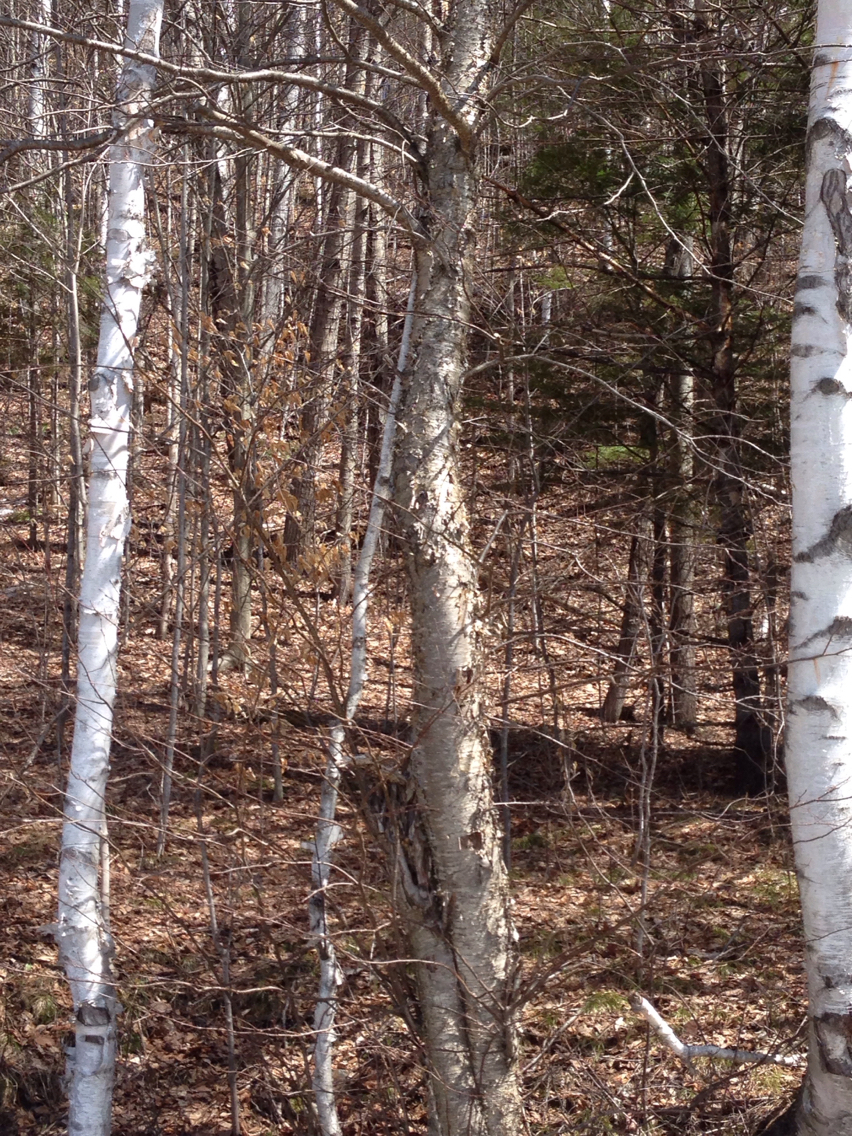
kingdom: Plantae
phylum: Tracheophyta
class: Magnoliopsida
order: Fagales
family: Betulaceae
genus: Betula
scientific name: Betula alleghaniensis
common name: Yellow birch
